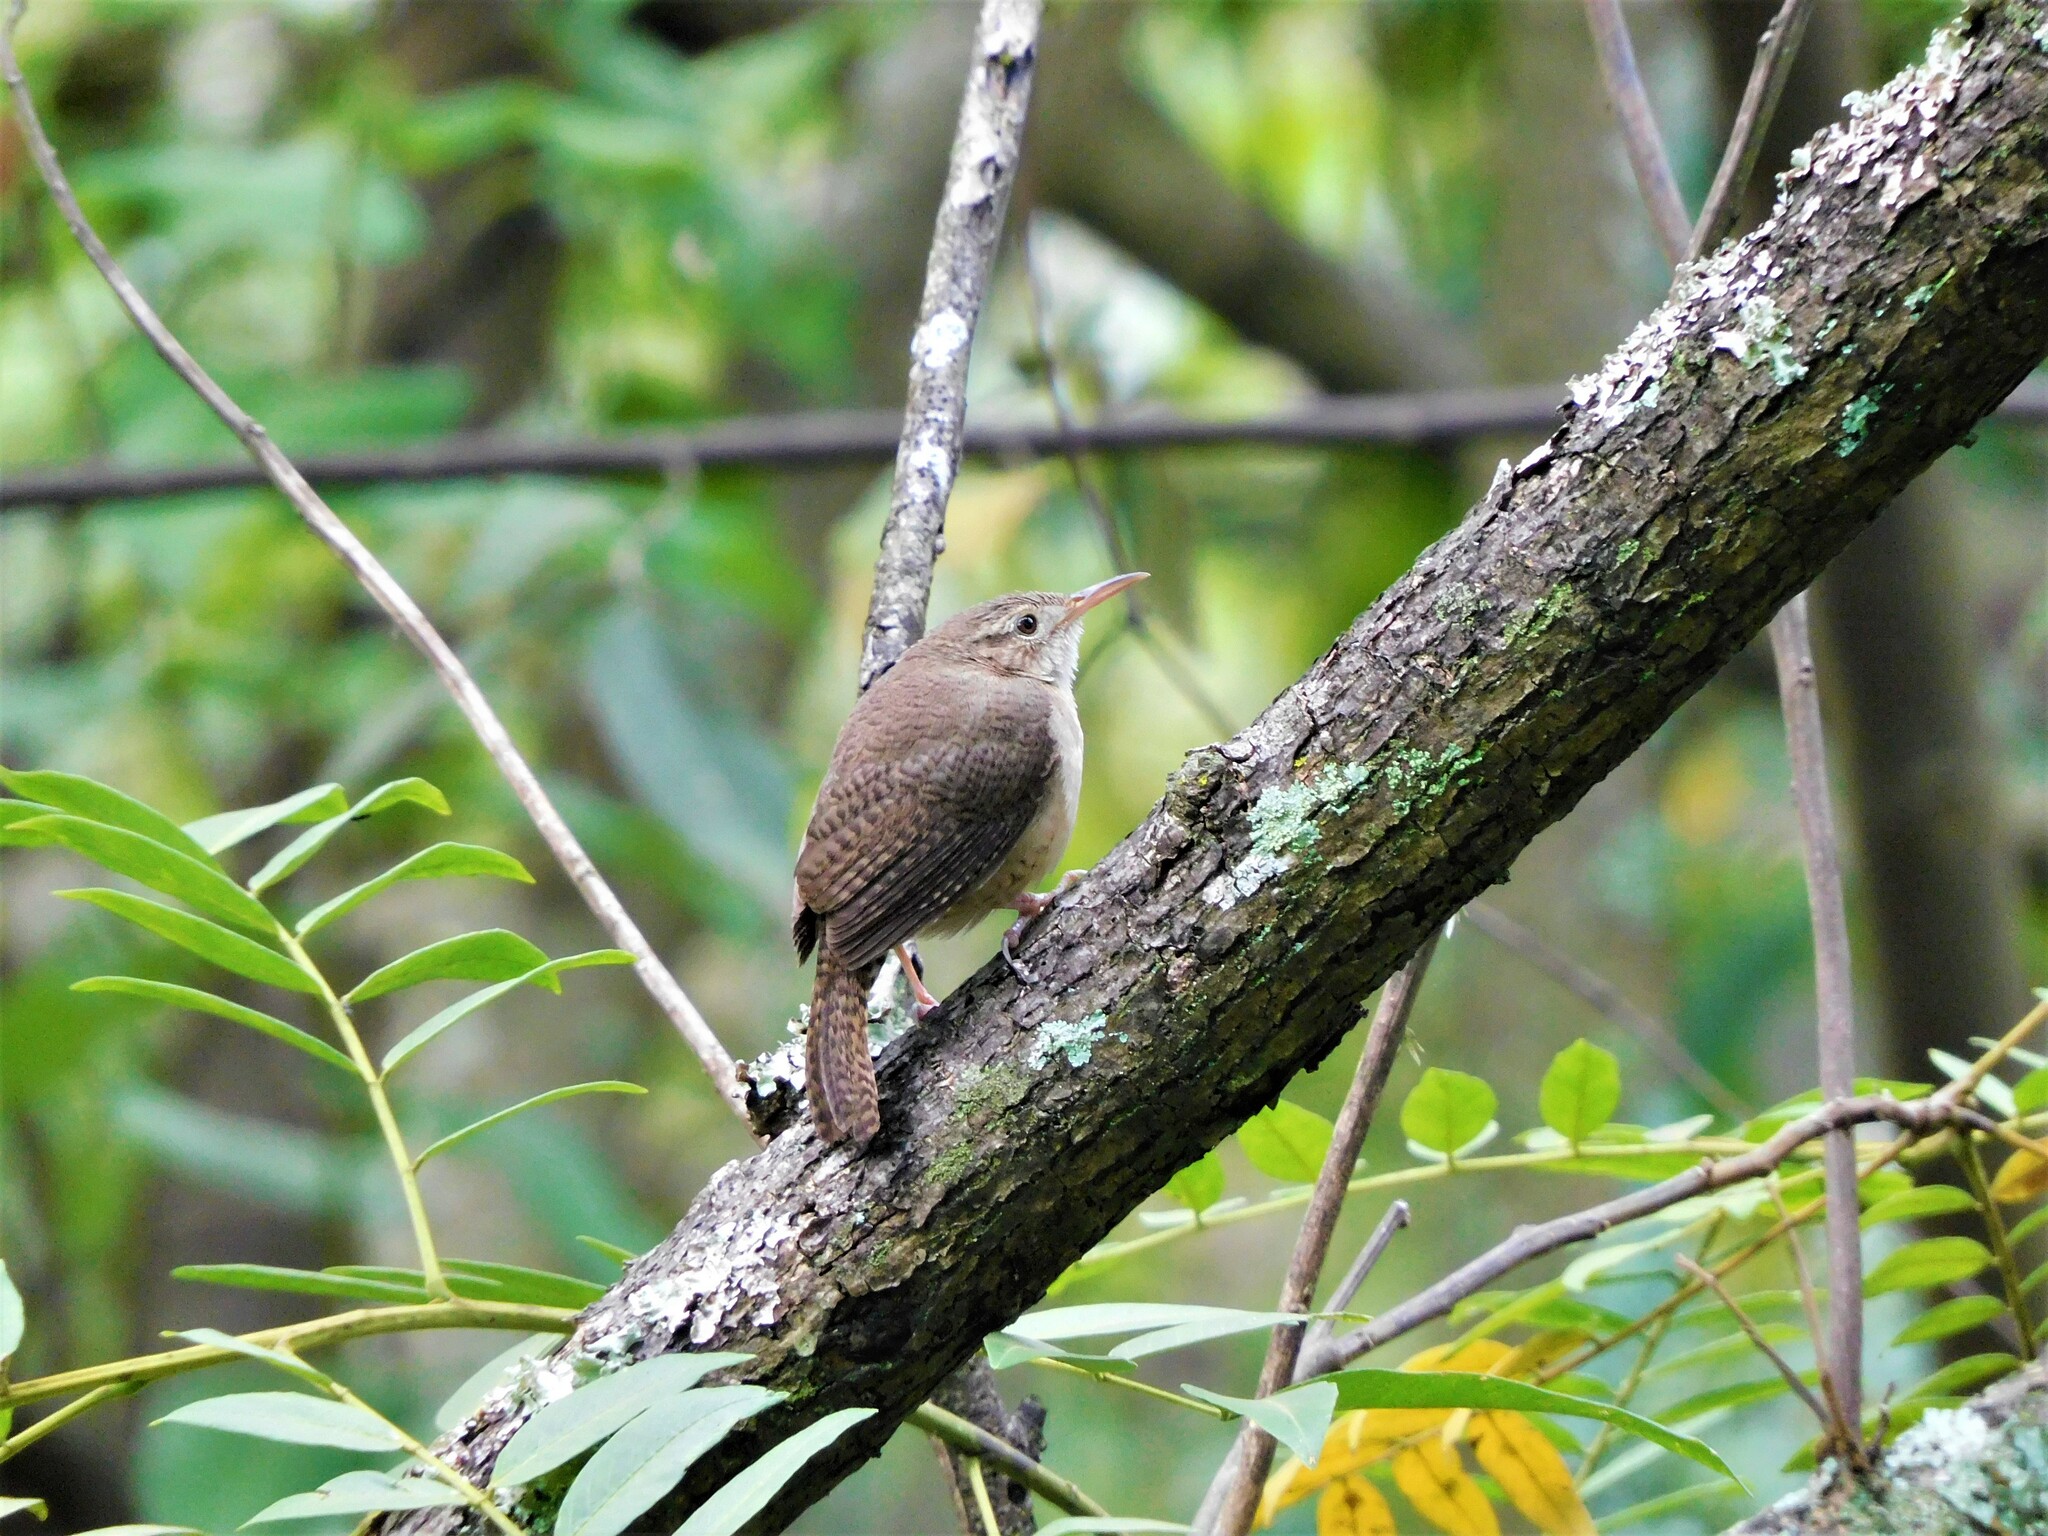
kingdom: Animalia
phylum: Chordata
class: Aves
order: Passeriformes
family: Troglodytidae
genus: Troglodytes
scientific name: Troglodytes aedon
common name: House wren
